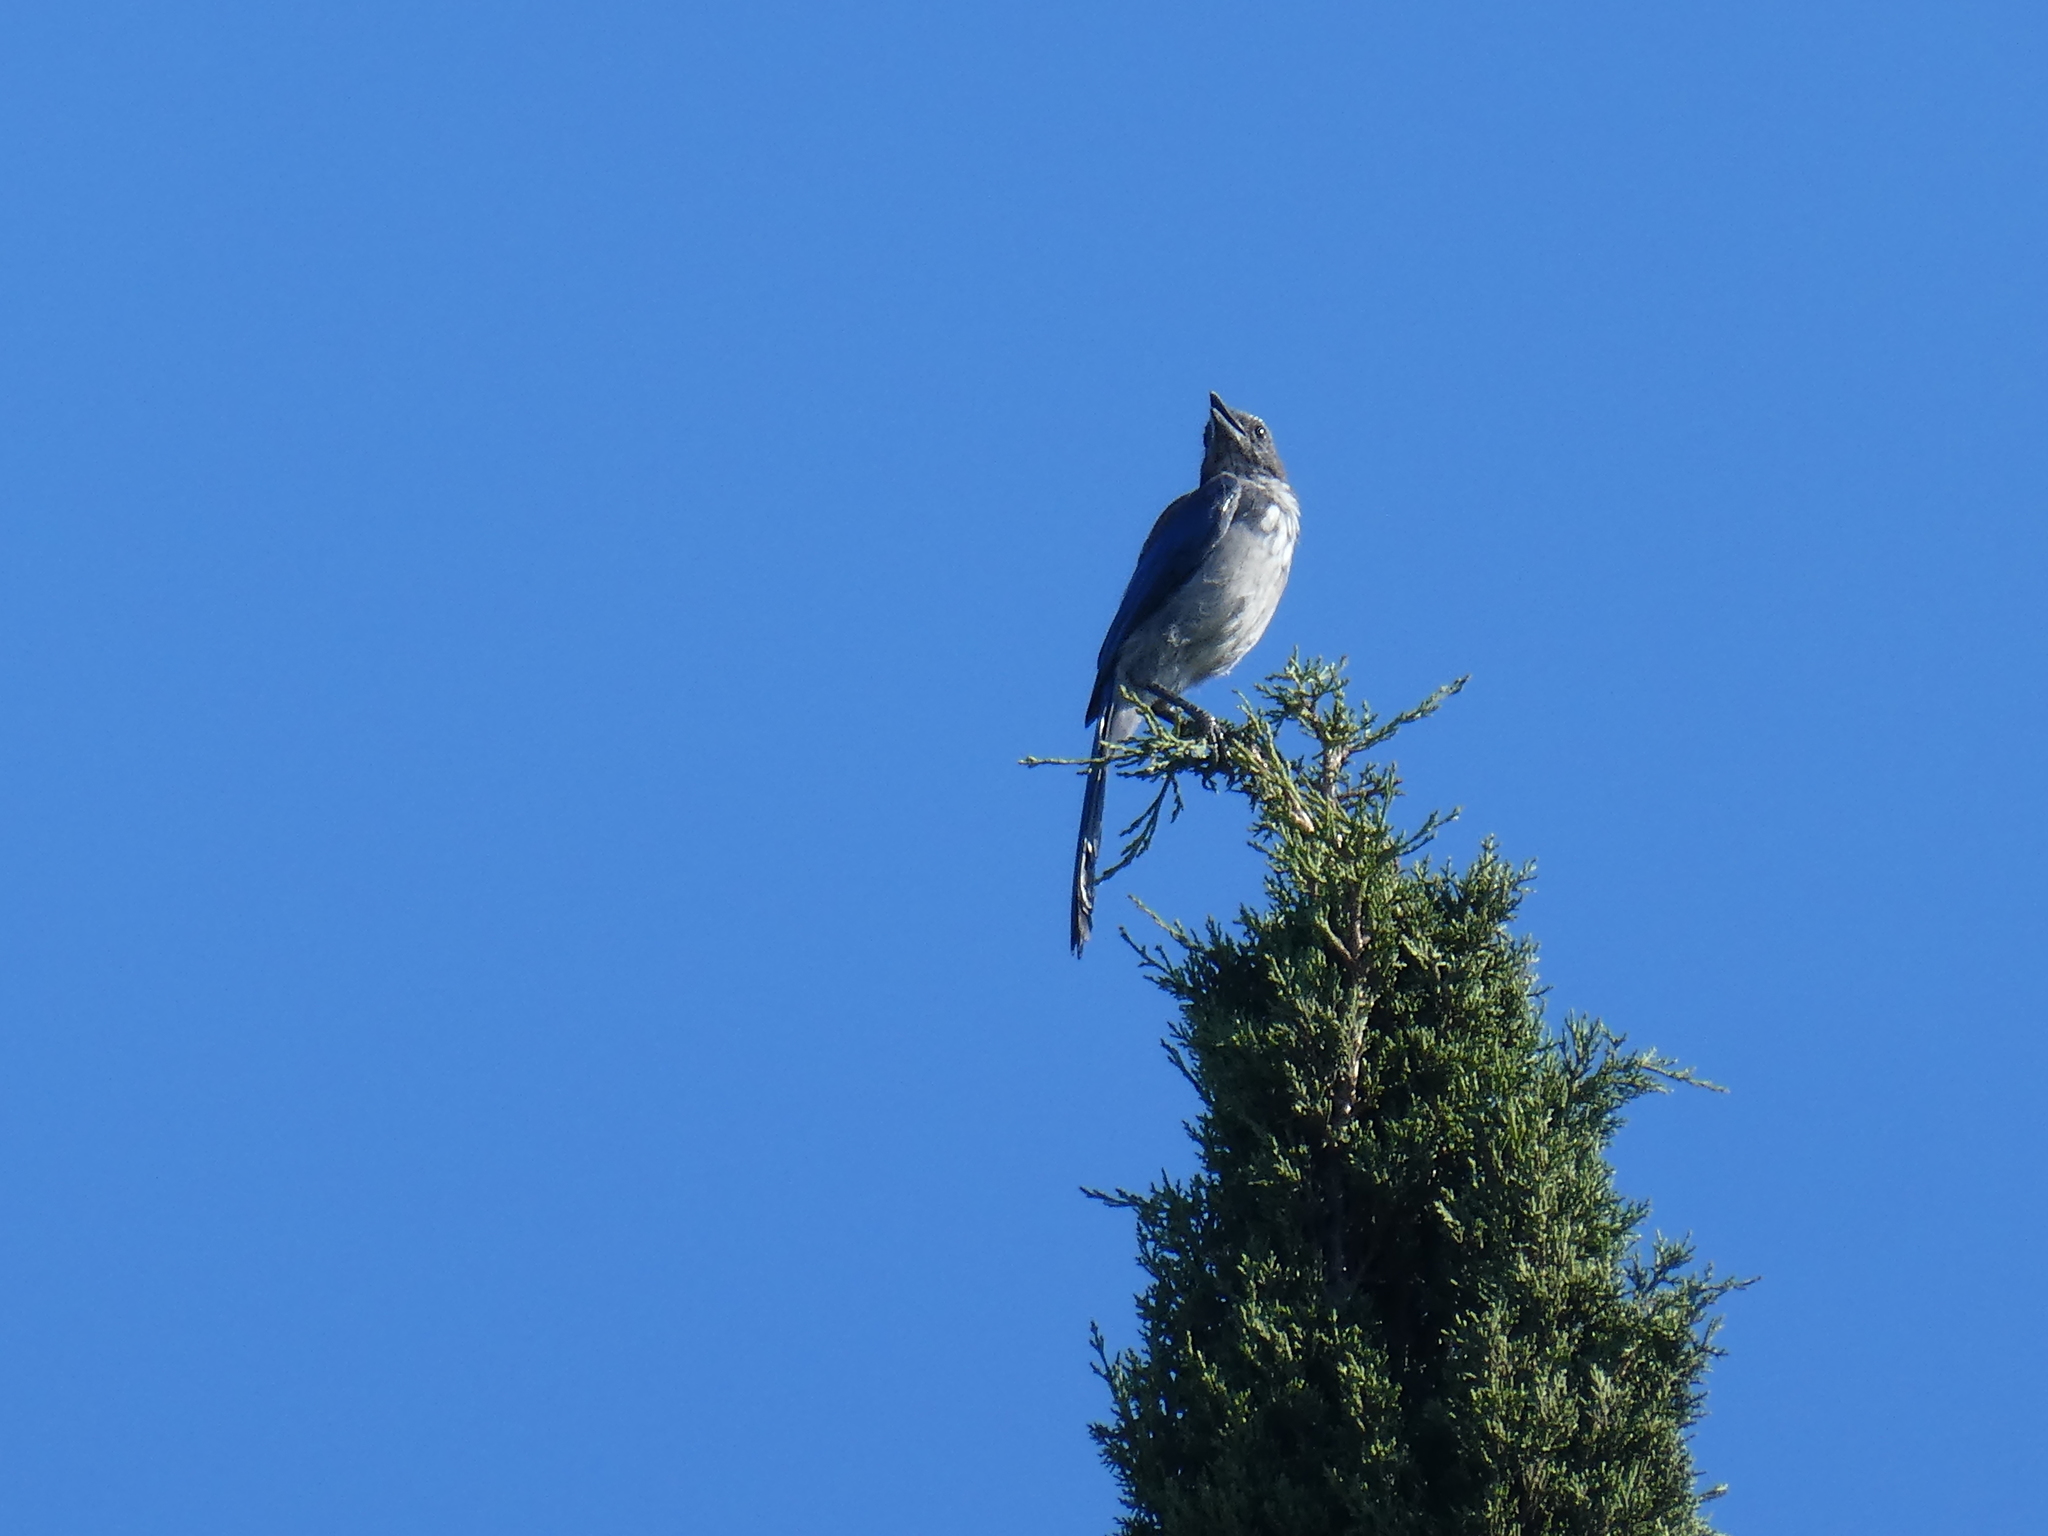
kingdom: Animalia
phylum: Chordata
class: Aves
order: Passeriformes
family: Corvidae
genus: Aphelocoma
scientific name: Aphelocoma californica
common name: California scrub-jay
